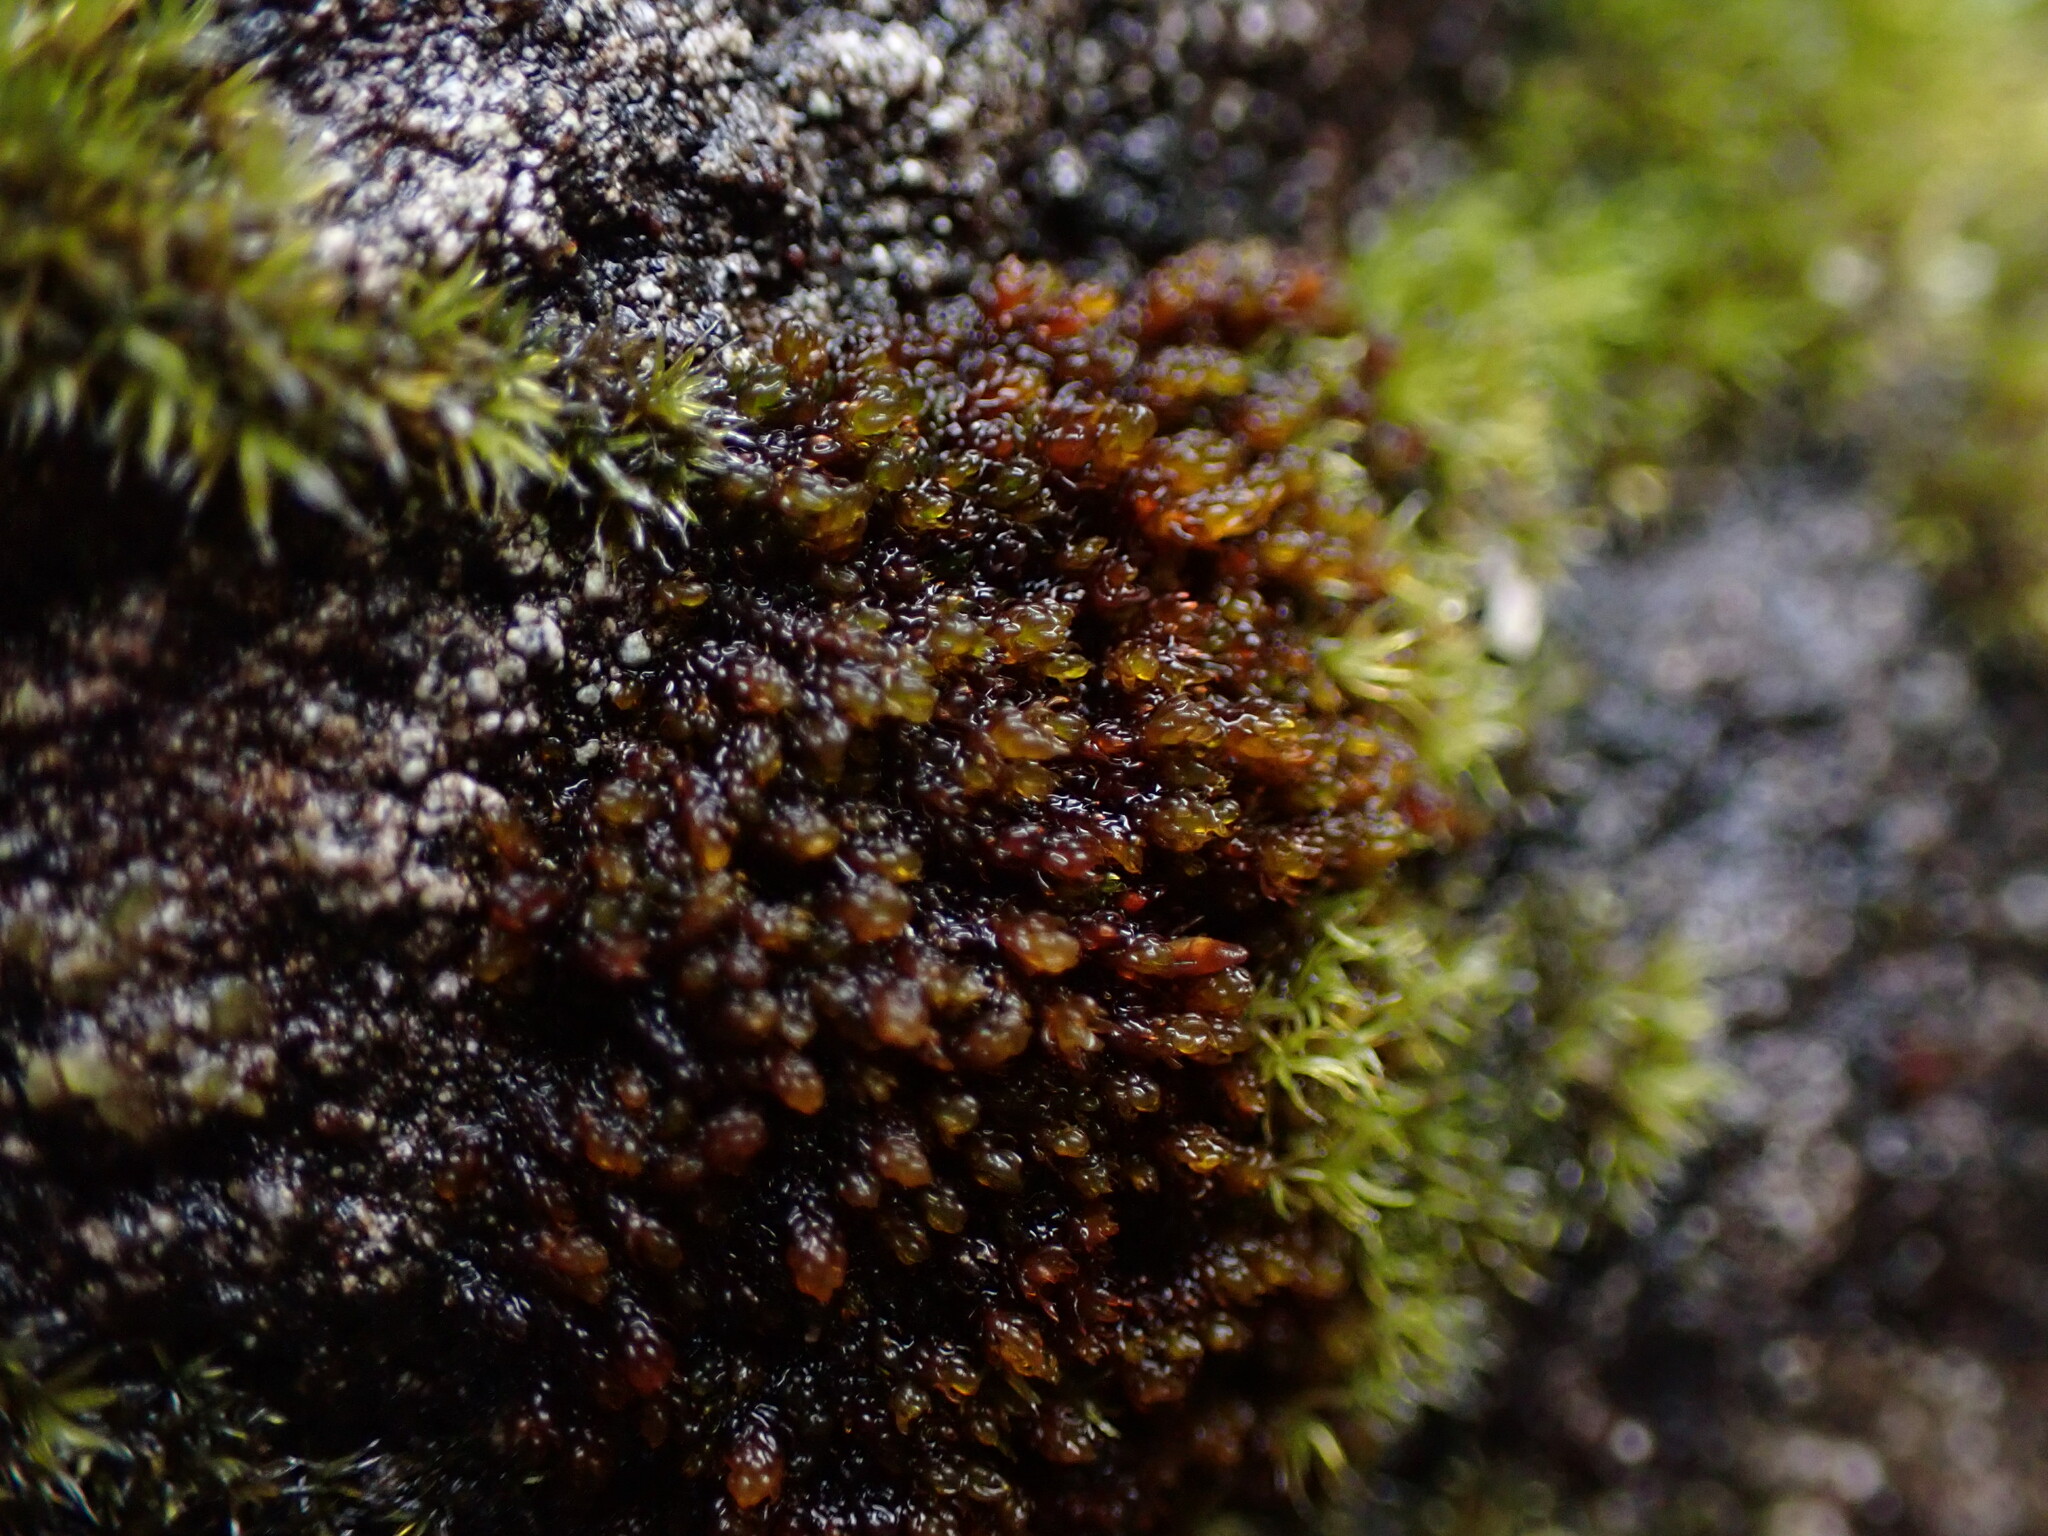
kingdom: Plantae
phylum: Bryophyta
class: Andreaeopsida
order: Andreaeales
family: Andreaeaceae
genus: Andreaea
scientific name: Andreaea rupestris
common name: Black rock moss
